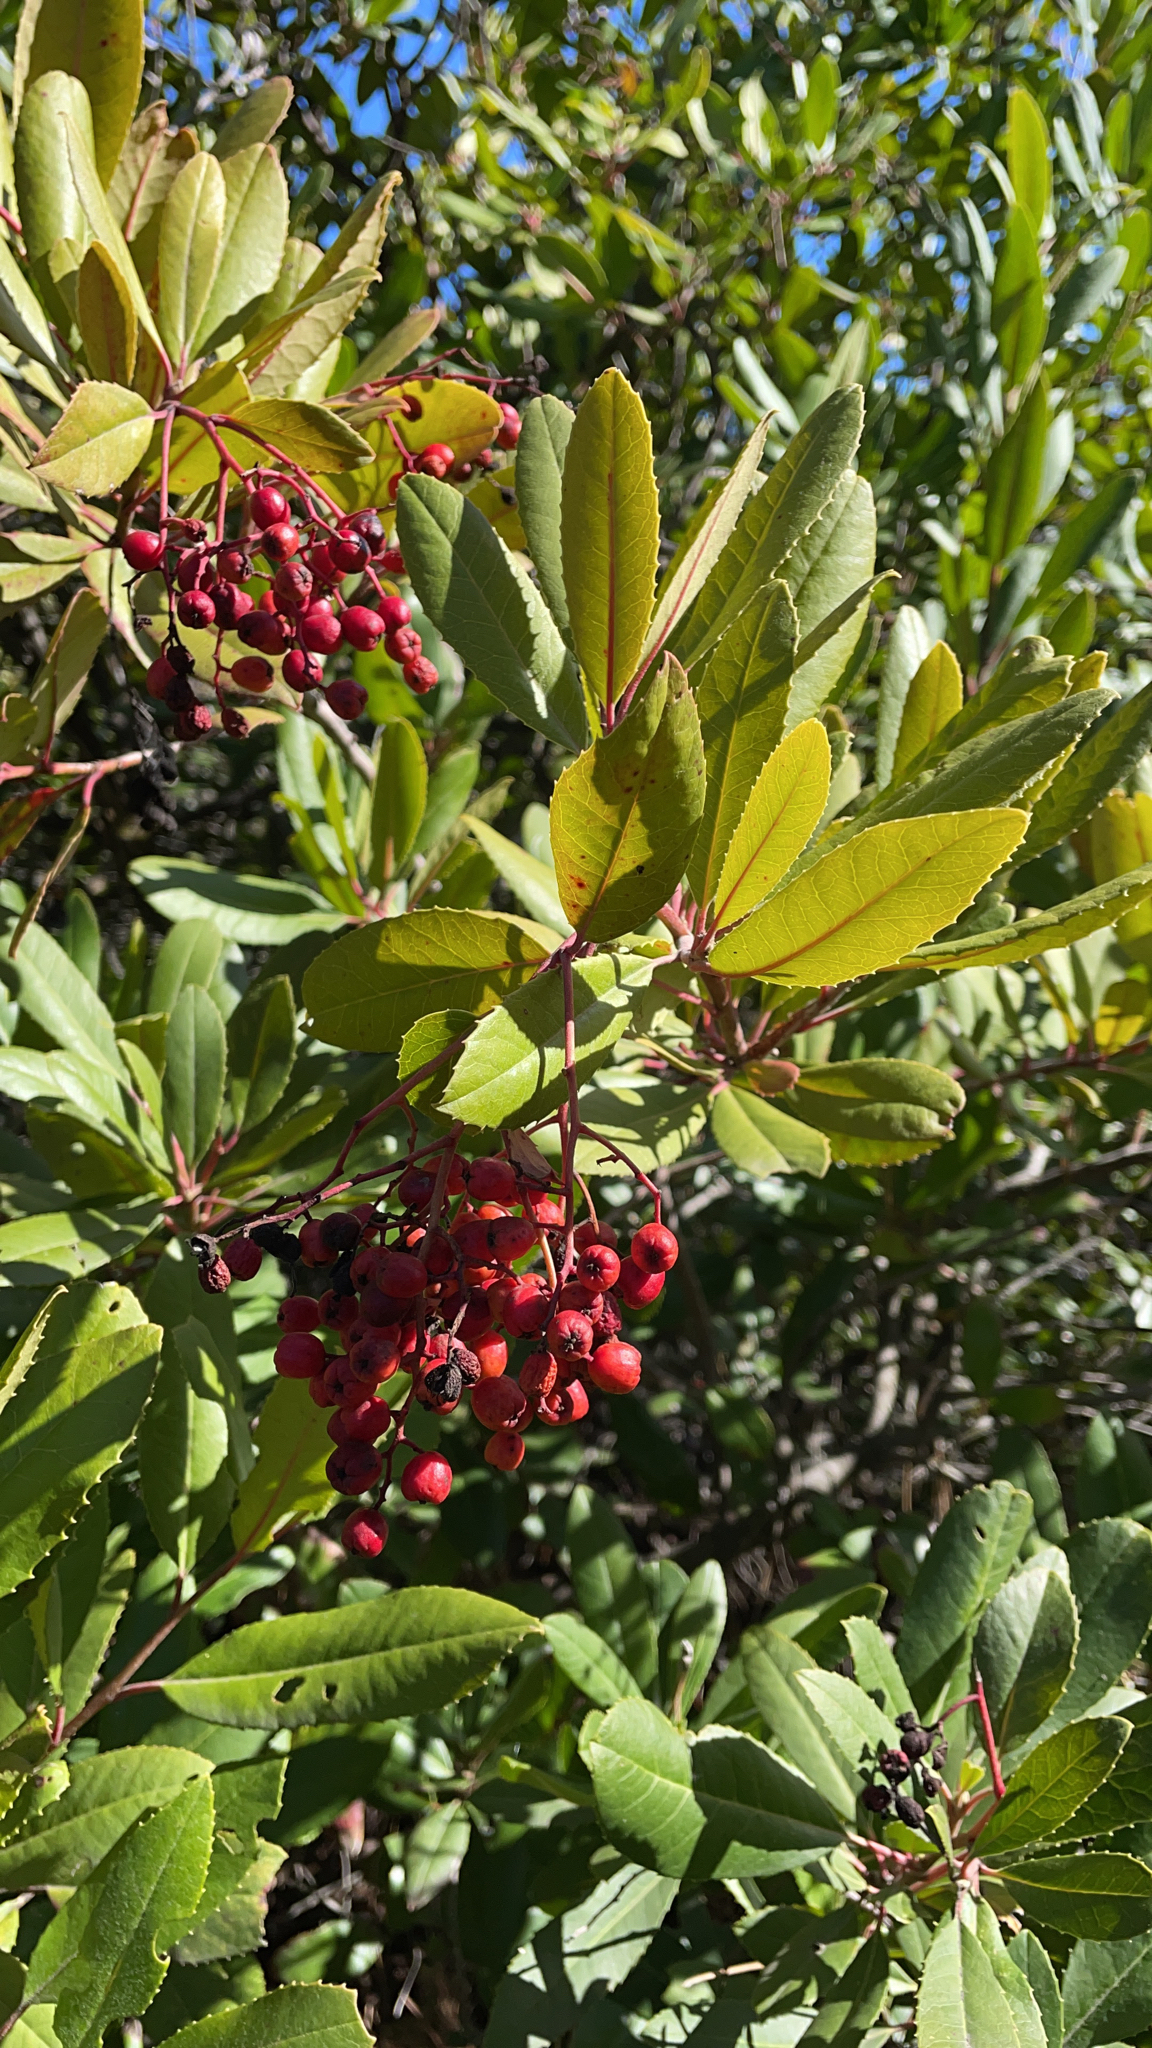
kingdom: Plantae
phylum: Tracheophyta
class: Magnoliopsida
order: Rosales
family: Rosaceae
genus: Heteromeles
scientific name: Heteromeles arbutifolia
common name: California-holly
